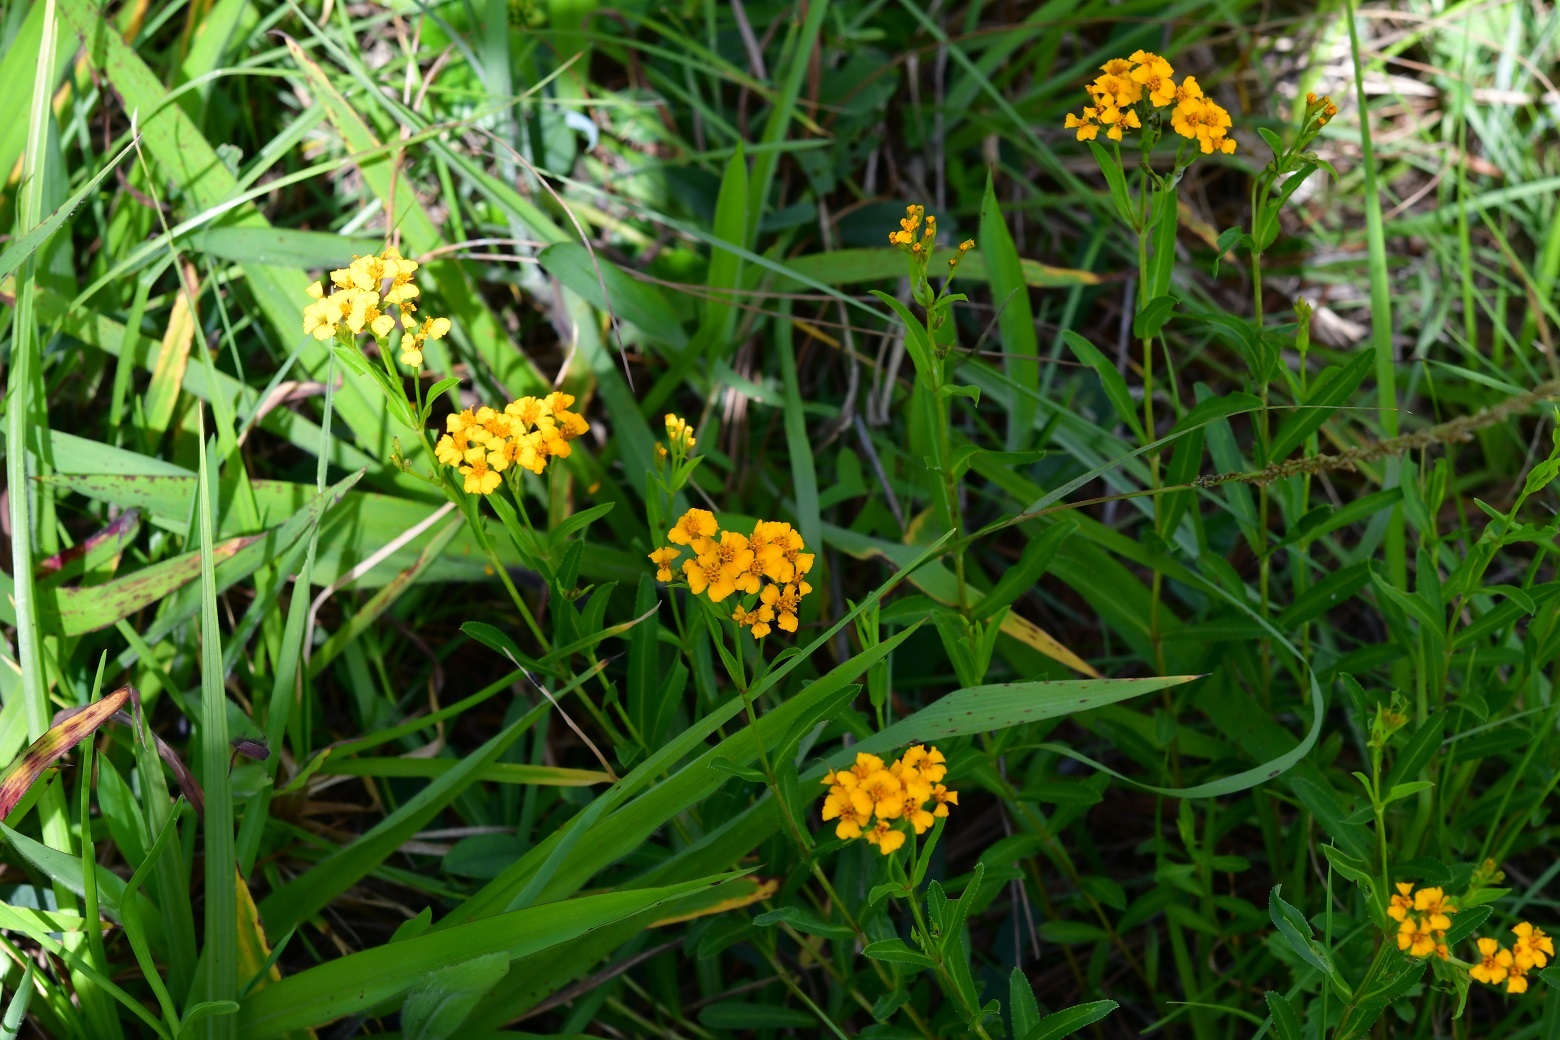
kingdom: Plantae
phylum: Tracheophyta
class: Magnoliopsida
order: Asterales
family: Asteraceae
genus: Tagetes
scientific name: Tagetes lucida
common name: Sweetscented marigold
